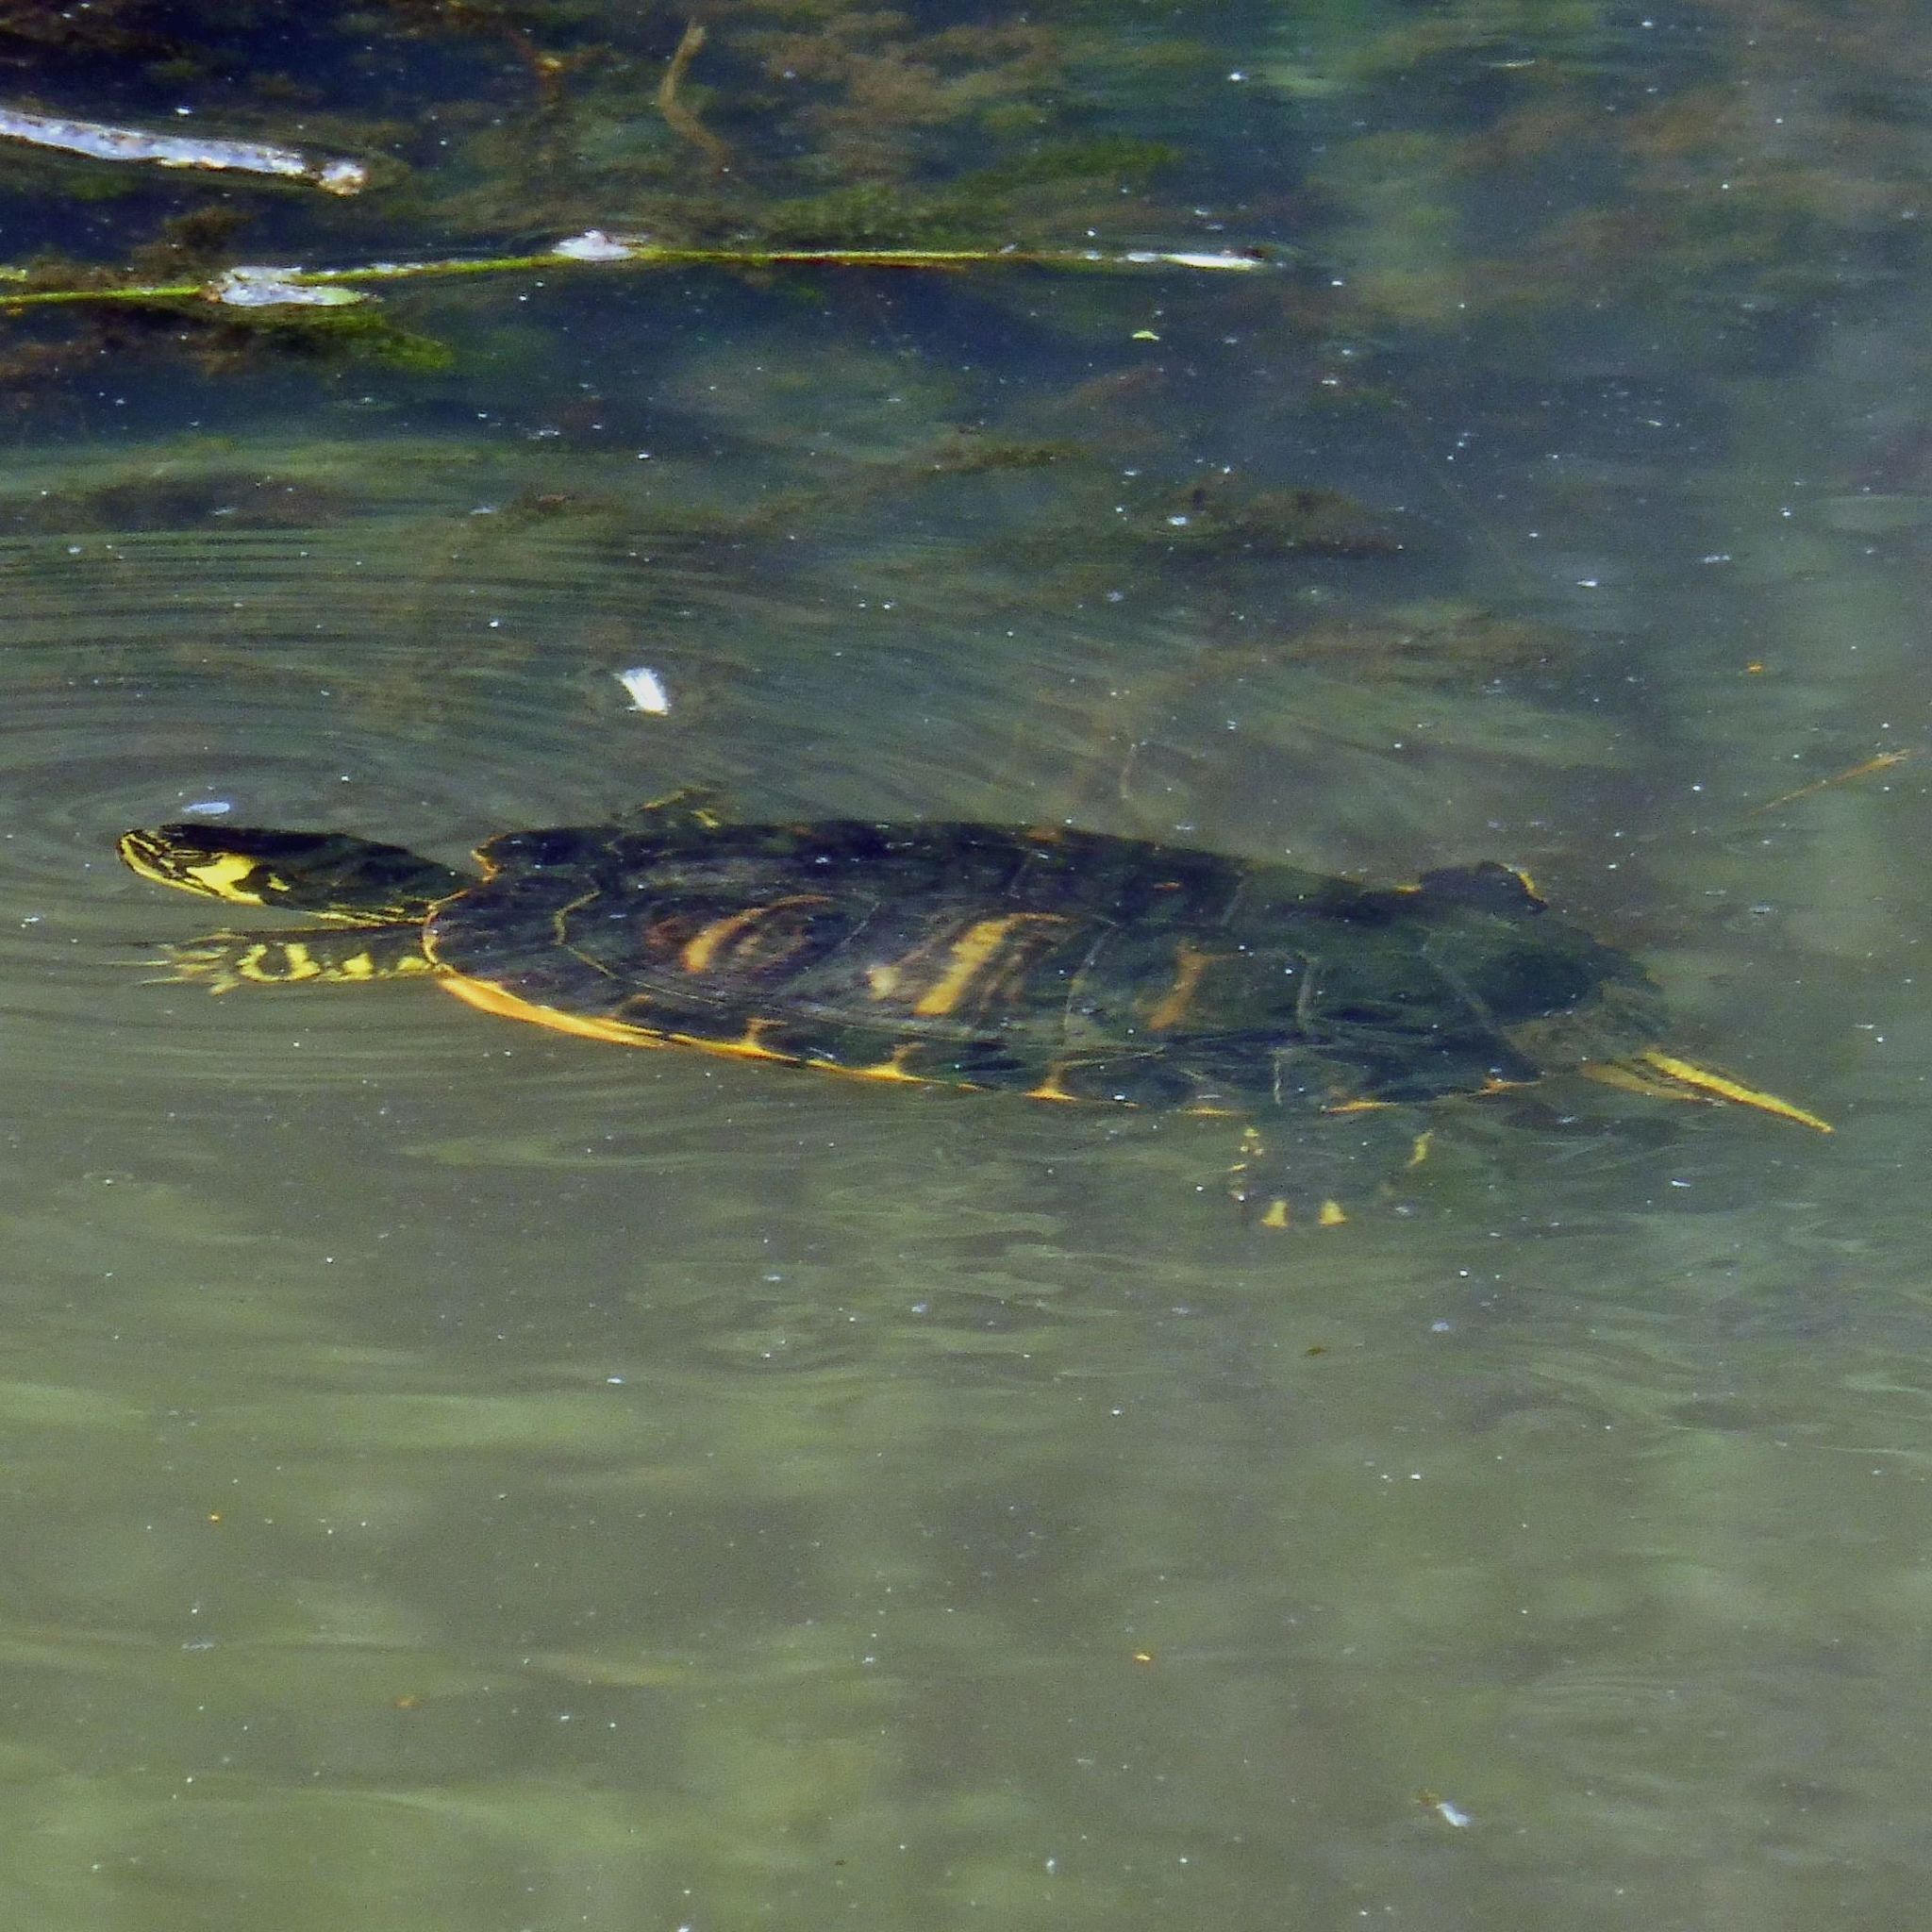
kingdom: Animalia
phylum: Chordata
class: Testudines
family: Emydidae
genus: Trachemys
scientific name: Trachemys scripta
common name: Slider
